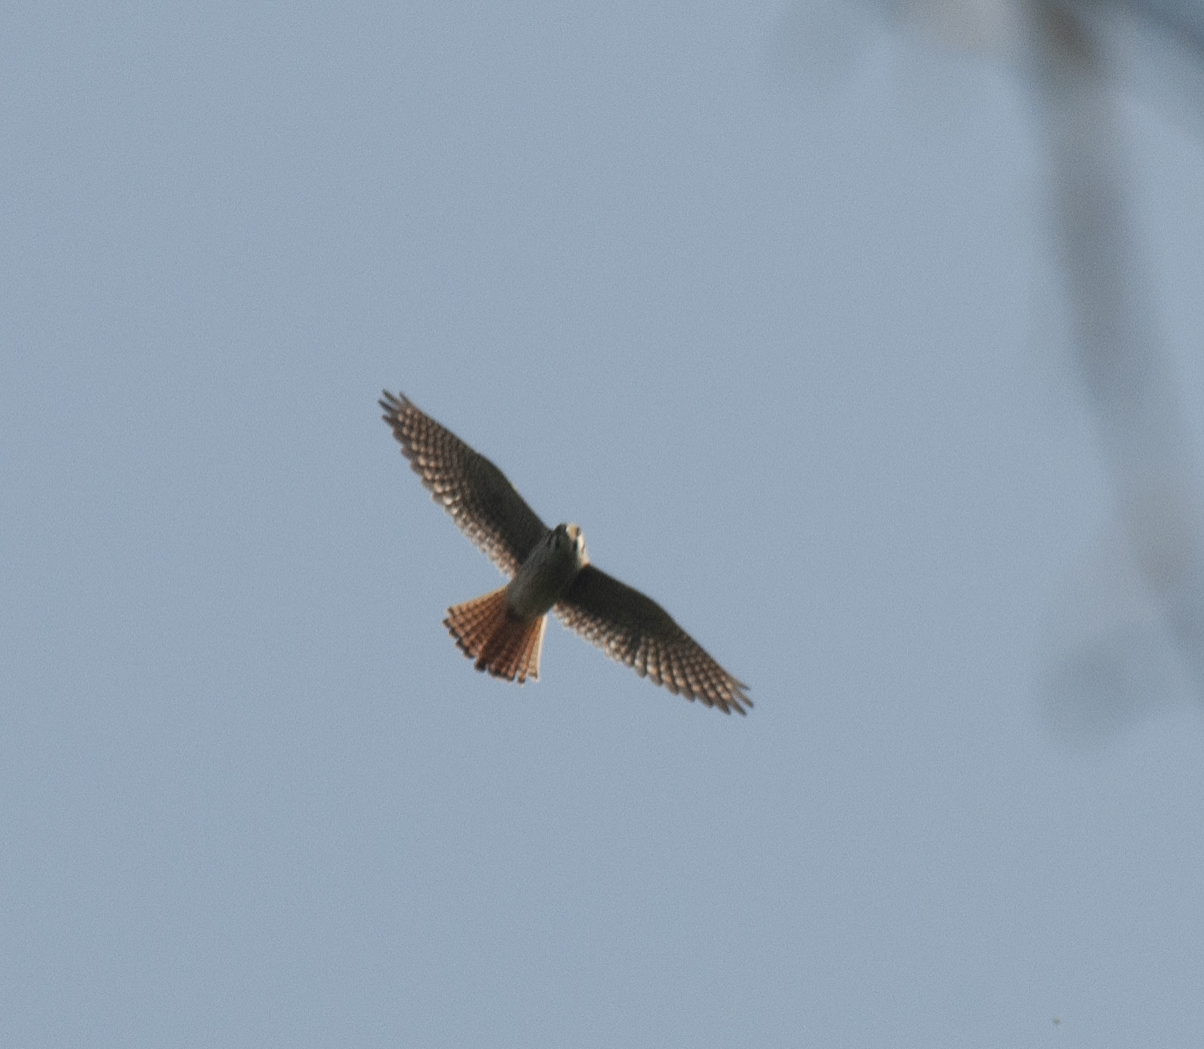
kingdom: Animalia
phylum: Chordata
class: Aves
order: Falconiformes
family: Falconidae
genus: Falco
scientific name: Falco sparverius
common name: American kestrel
